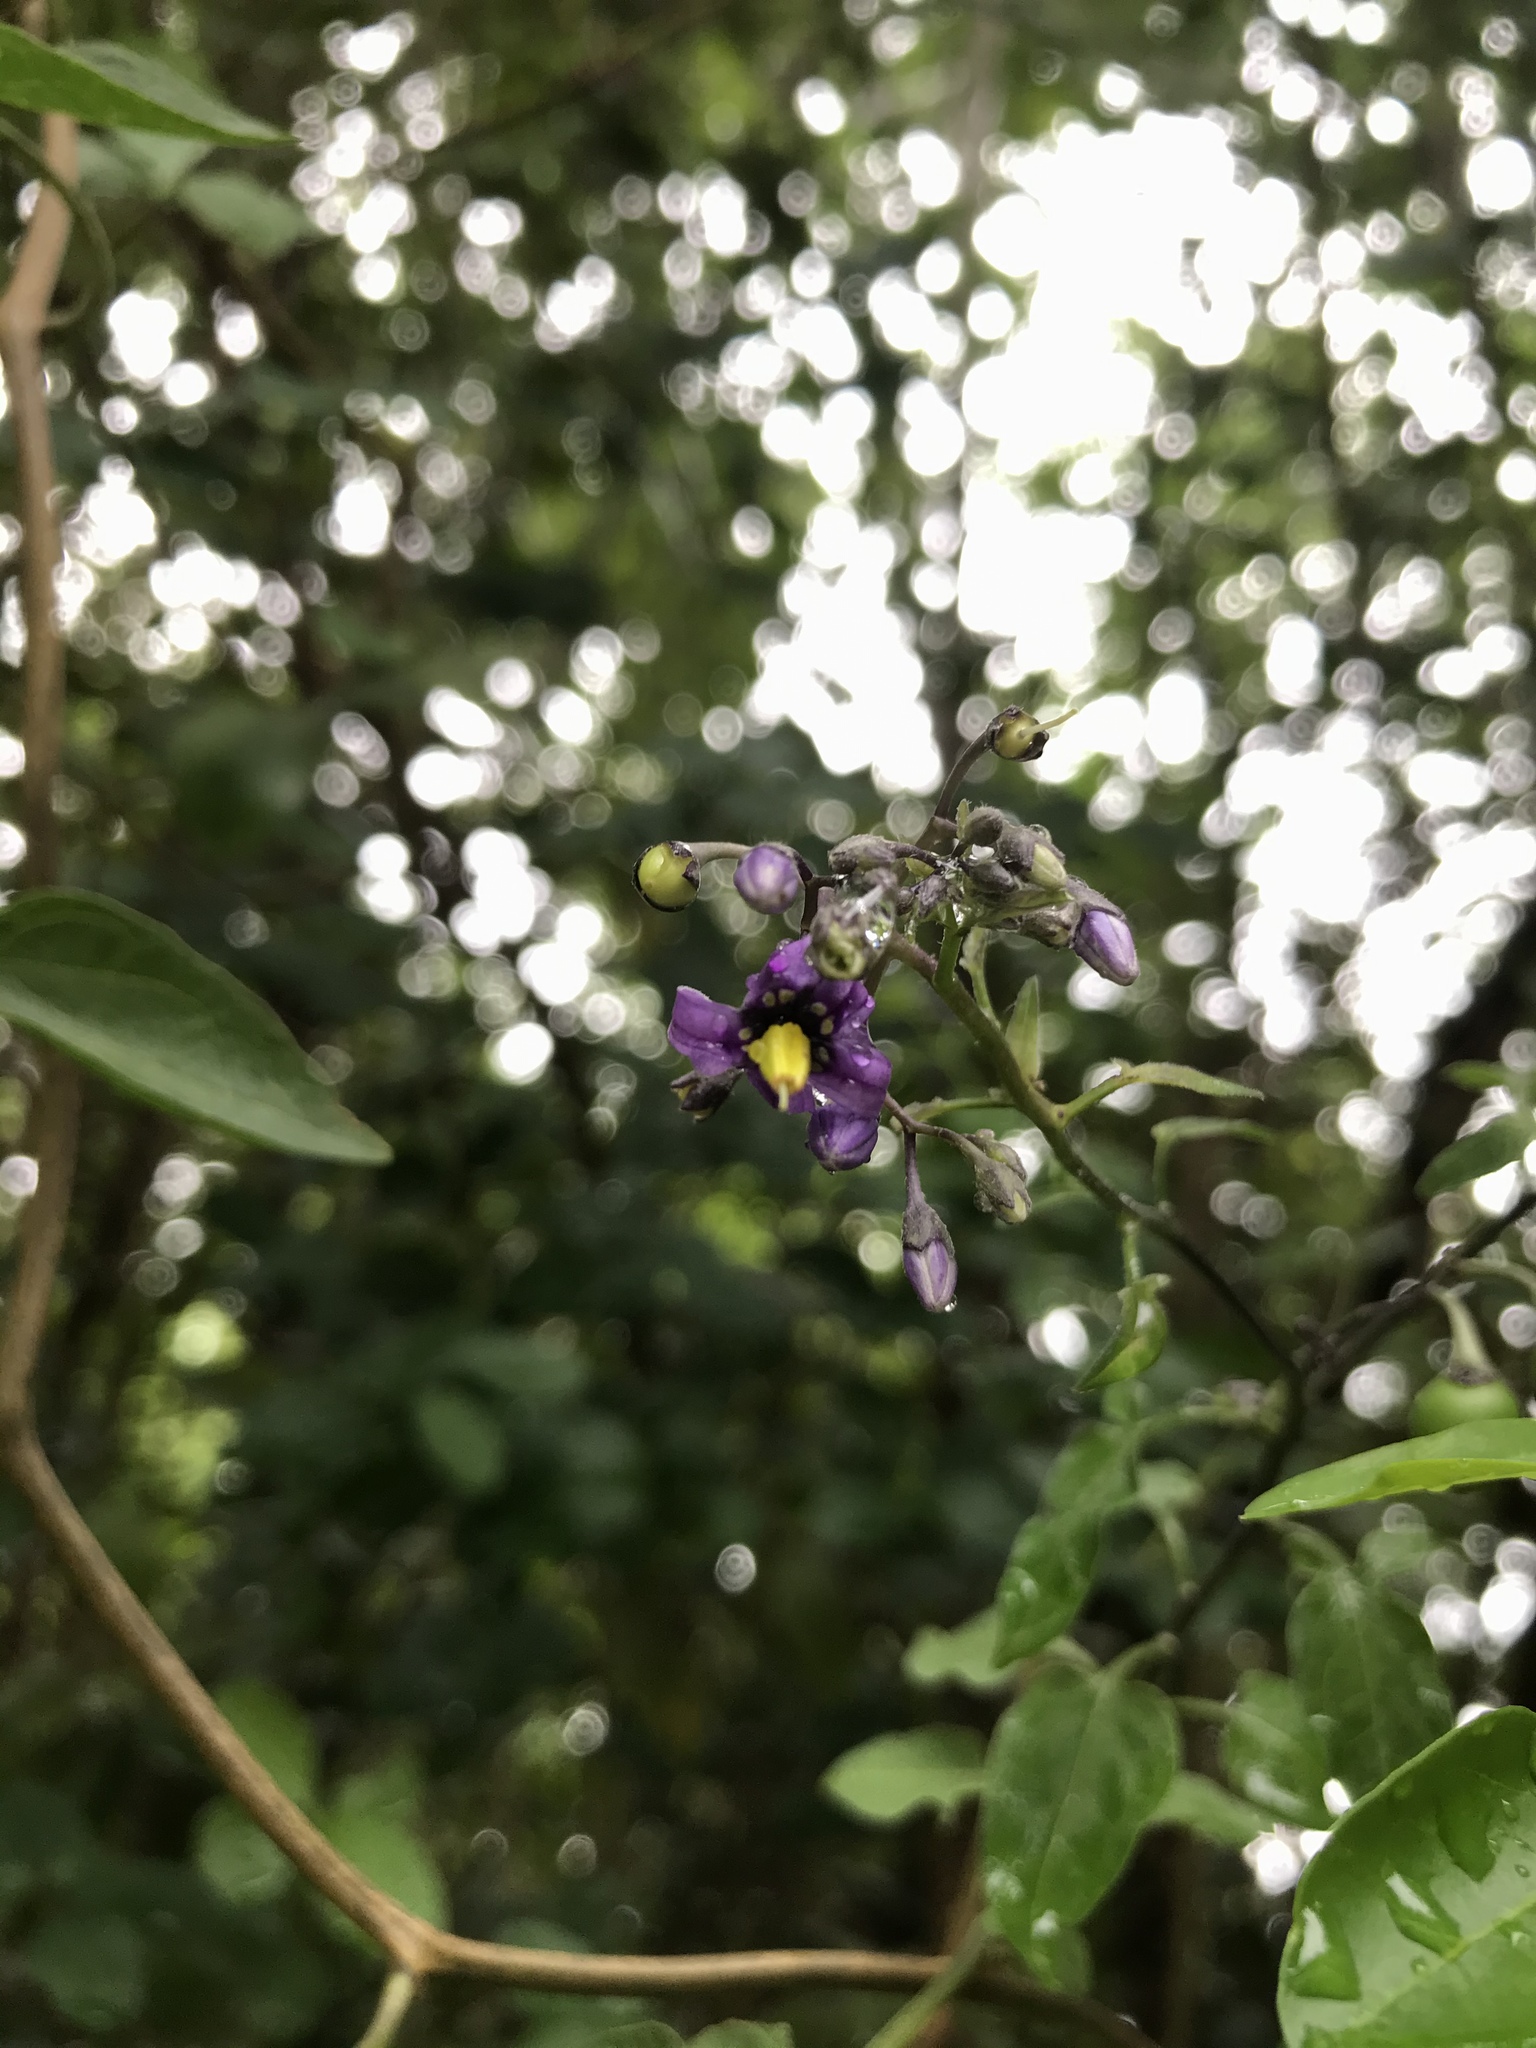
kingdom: Plantae
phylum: Tracheophyta
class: Magnoliopsida
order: Solanales
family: Solanaceae
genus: Solanum
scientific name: Solanum dulcamara
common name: Climbing nightshade
